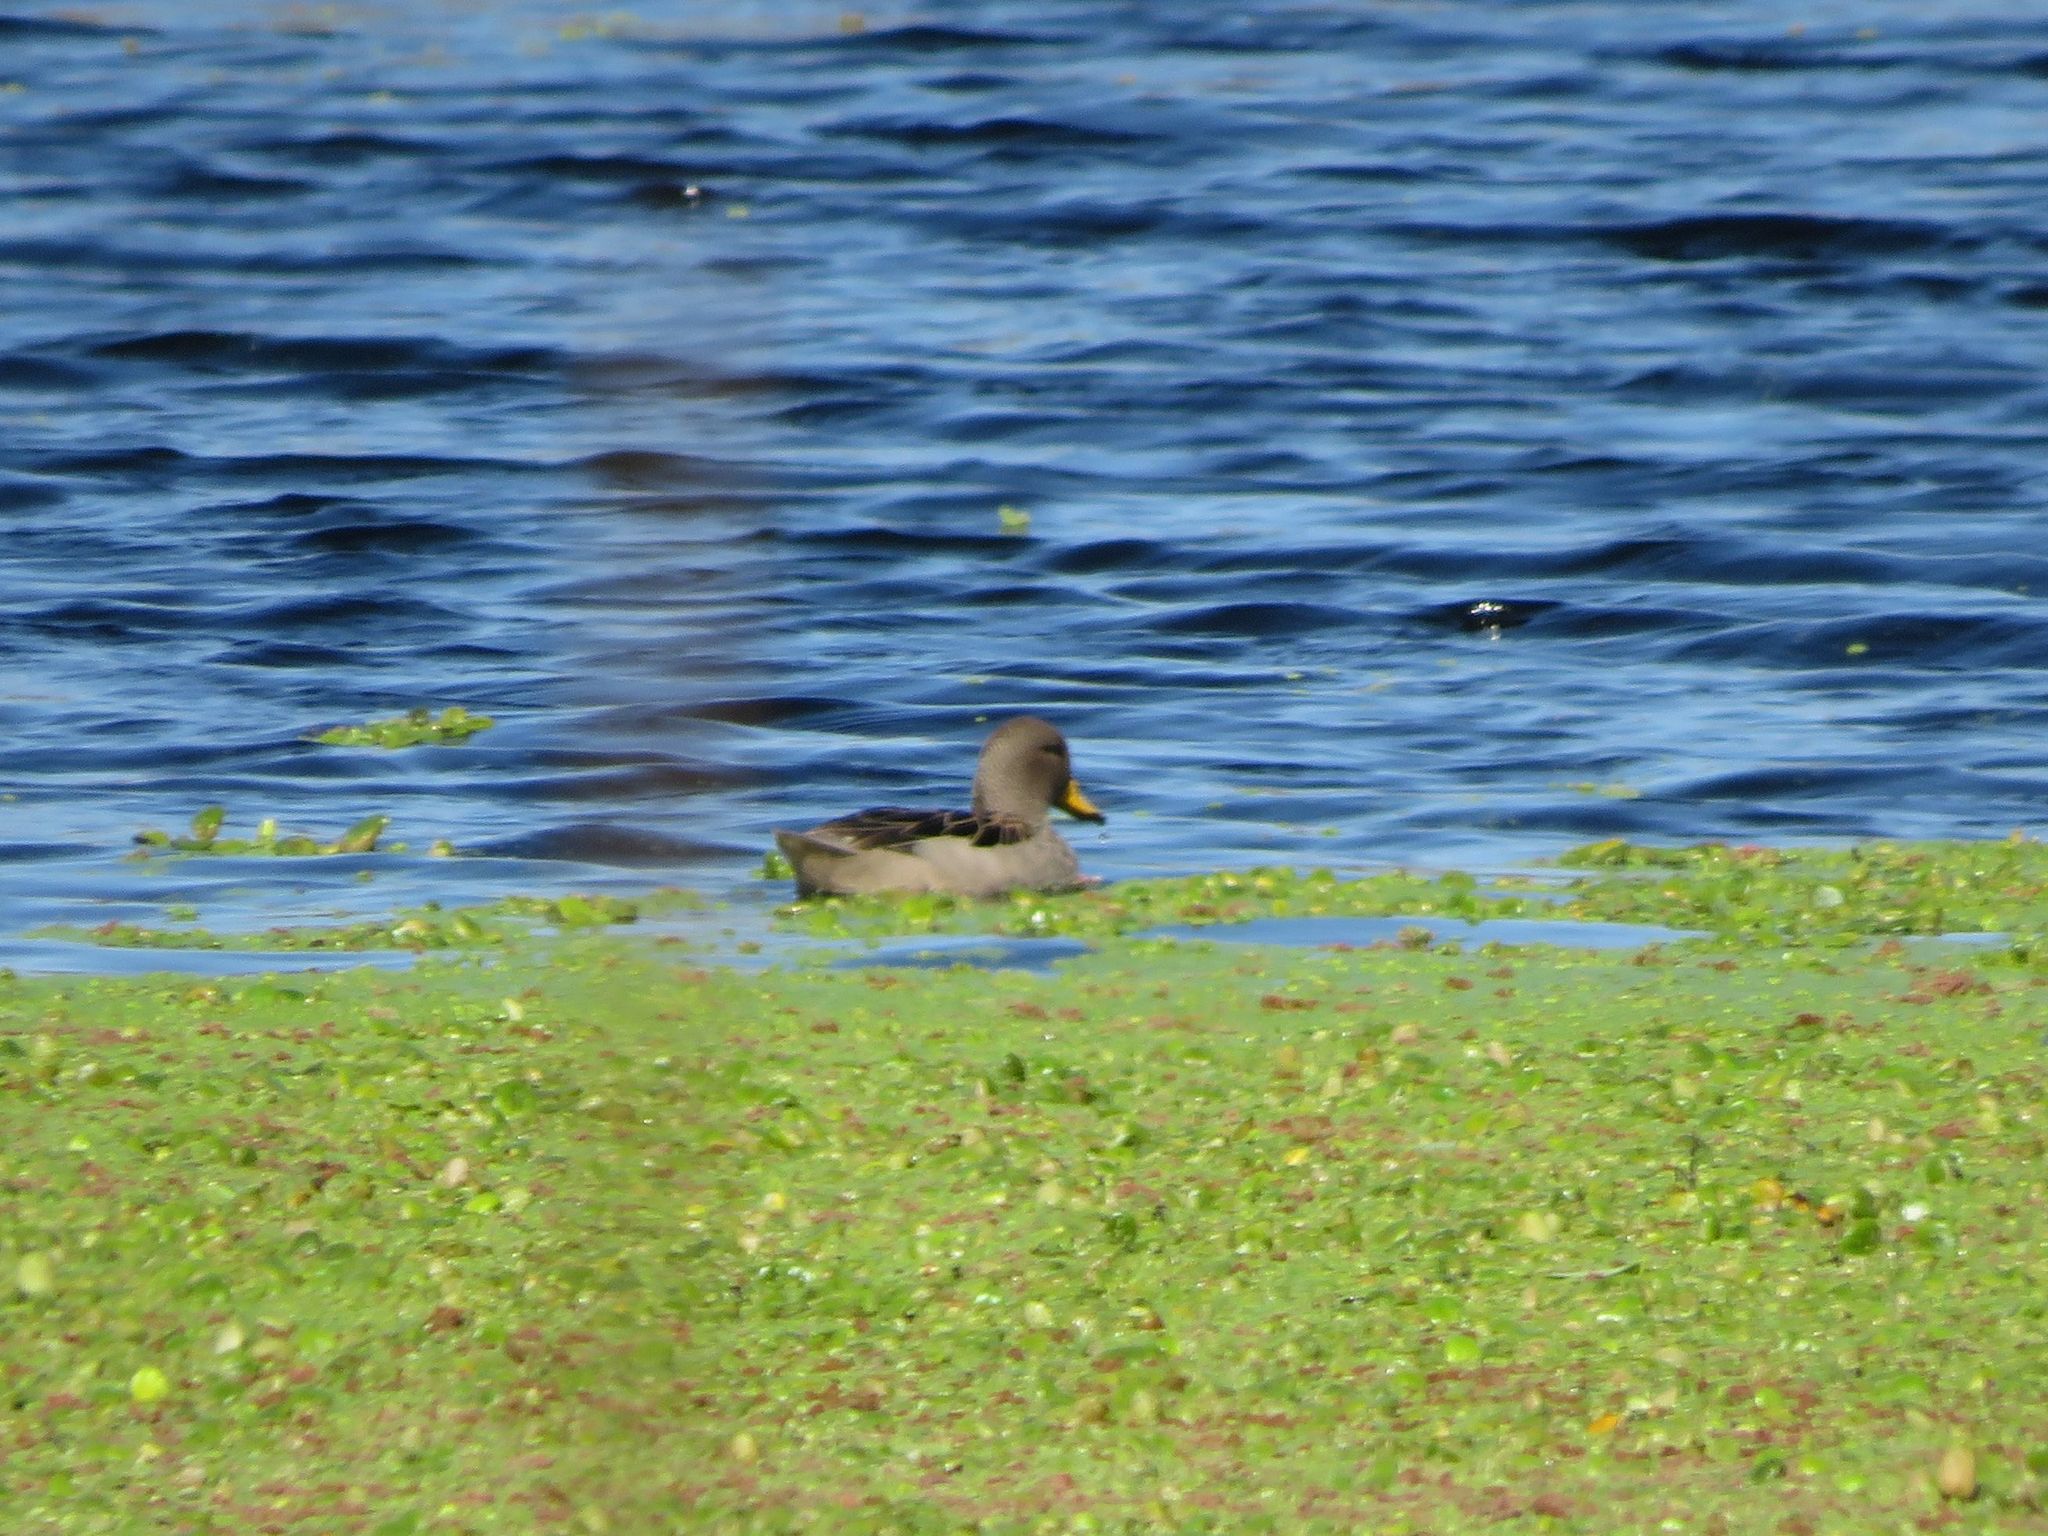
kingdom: Animalia
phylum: Chordata
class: Aves
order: Anseriformes
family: Anatidae
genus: Anas
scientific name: Anas flavirostris
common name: Yellow-billed teal
